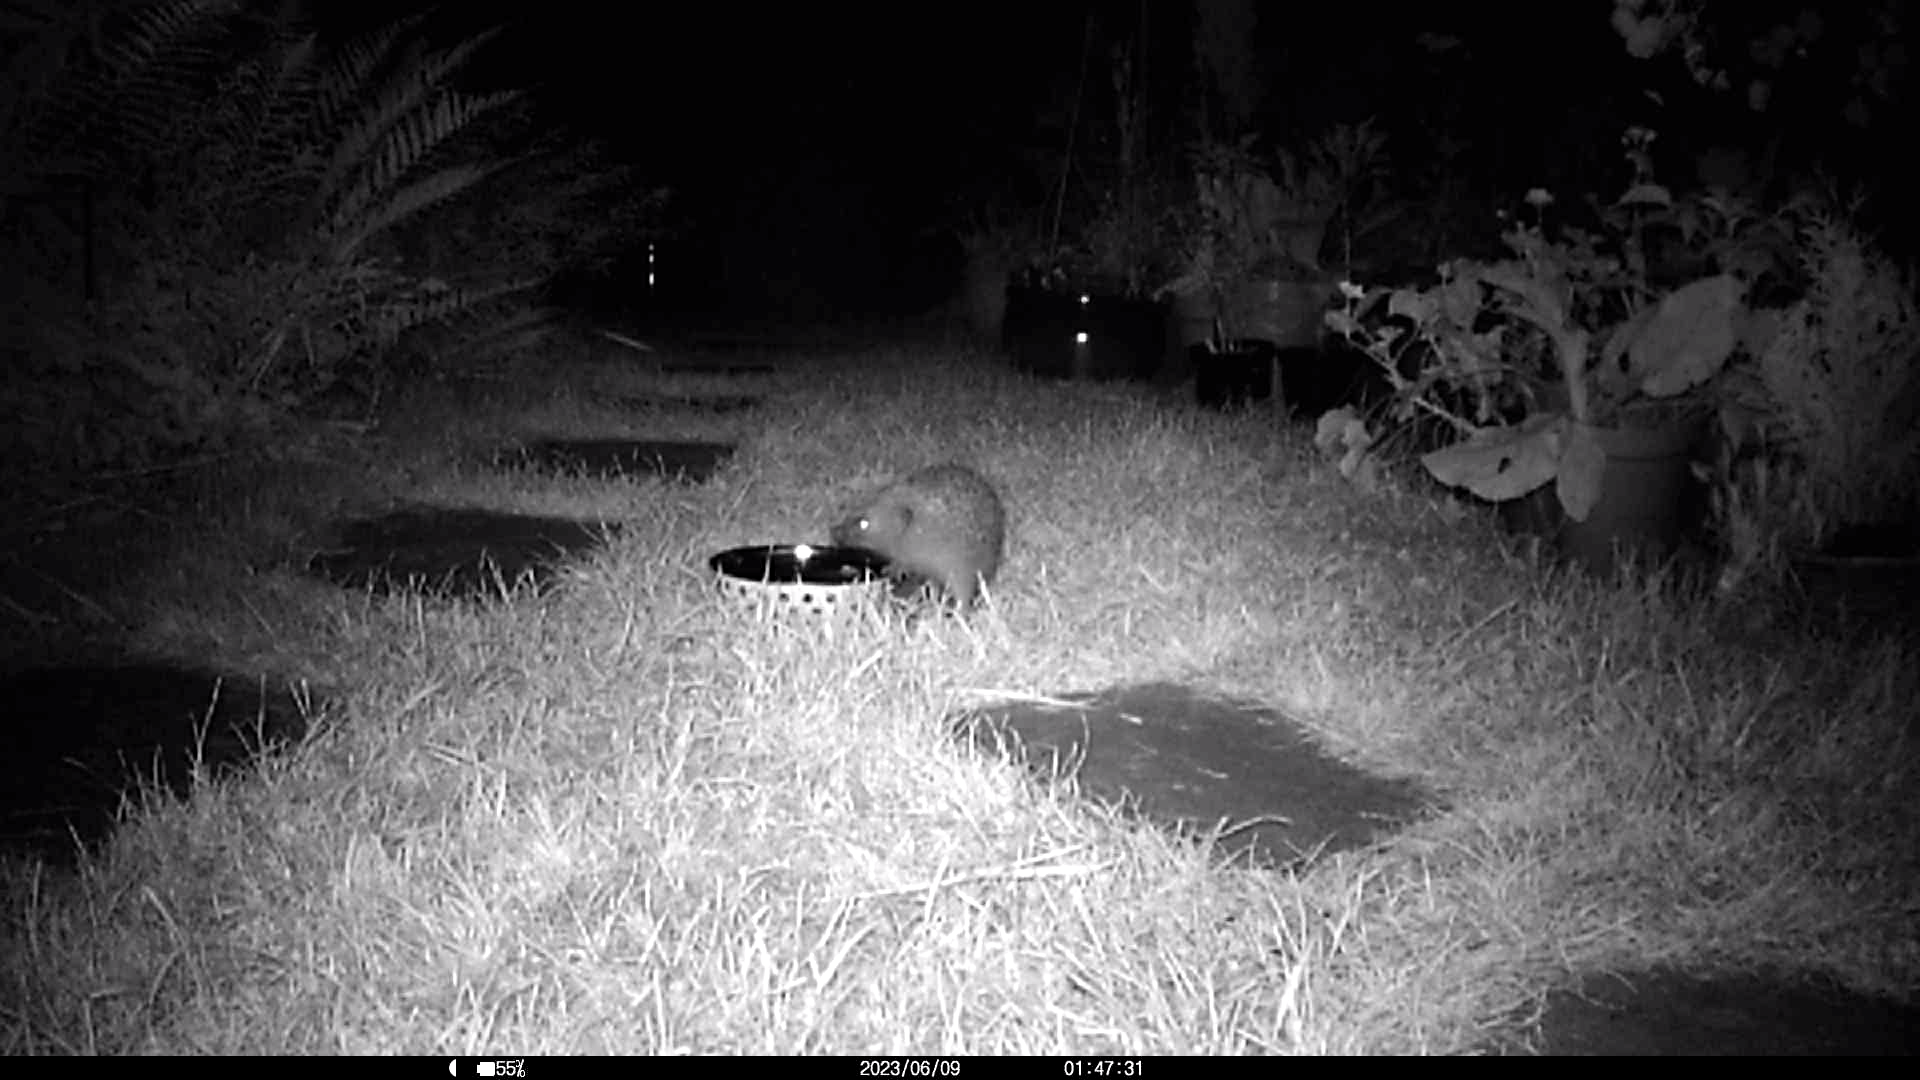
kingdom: Animalia
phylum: Chordata
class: Mammalia
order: Erinaceomorpha
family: Erinaceidae
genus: Erinaceus
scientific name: Erinaceus europaeus
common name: West european hedgehog
